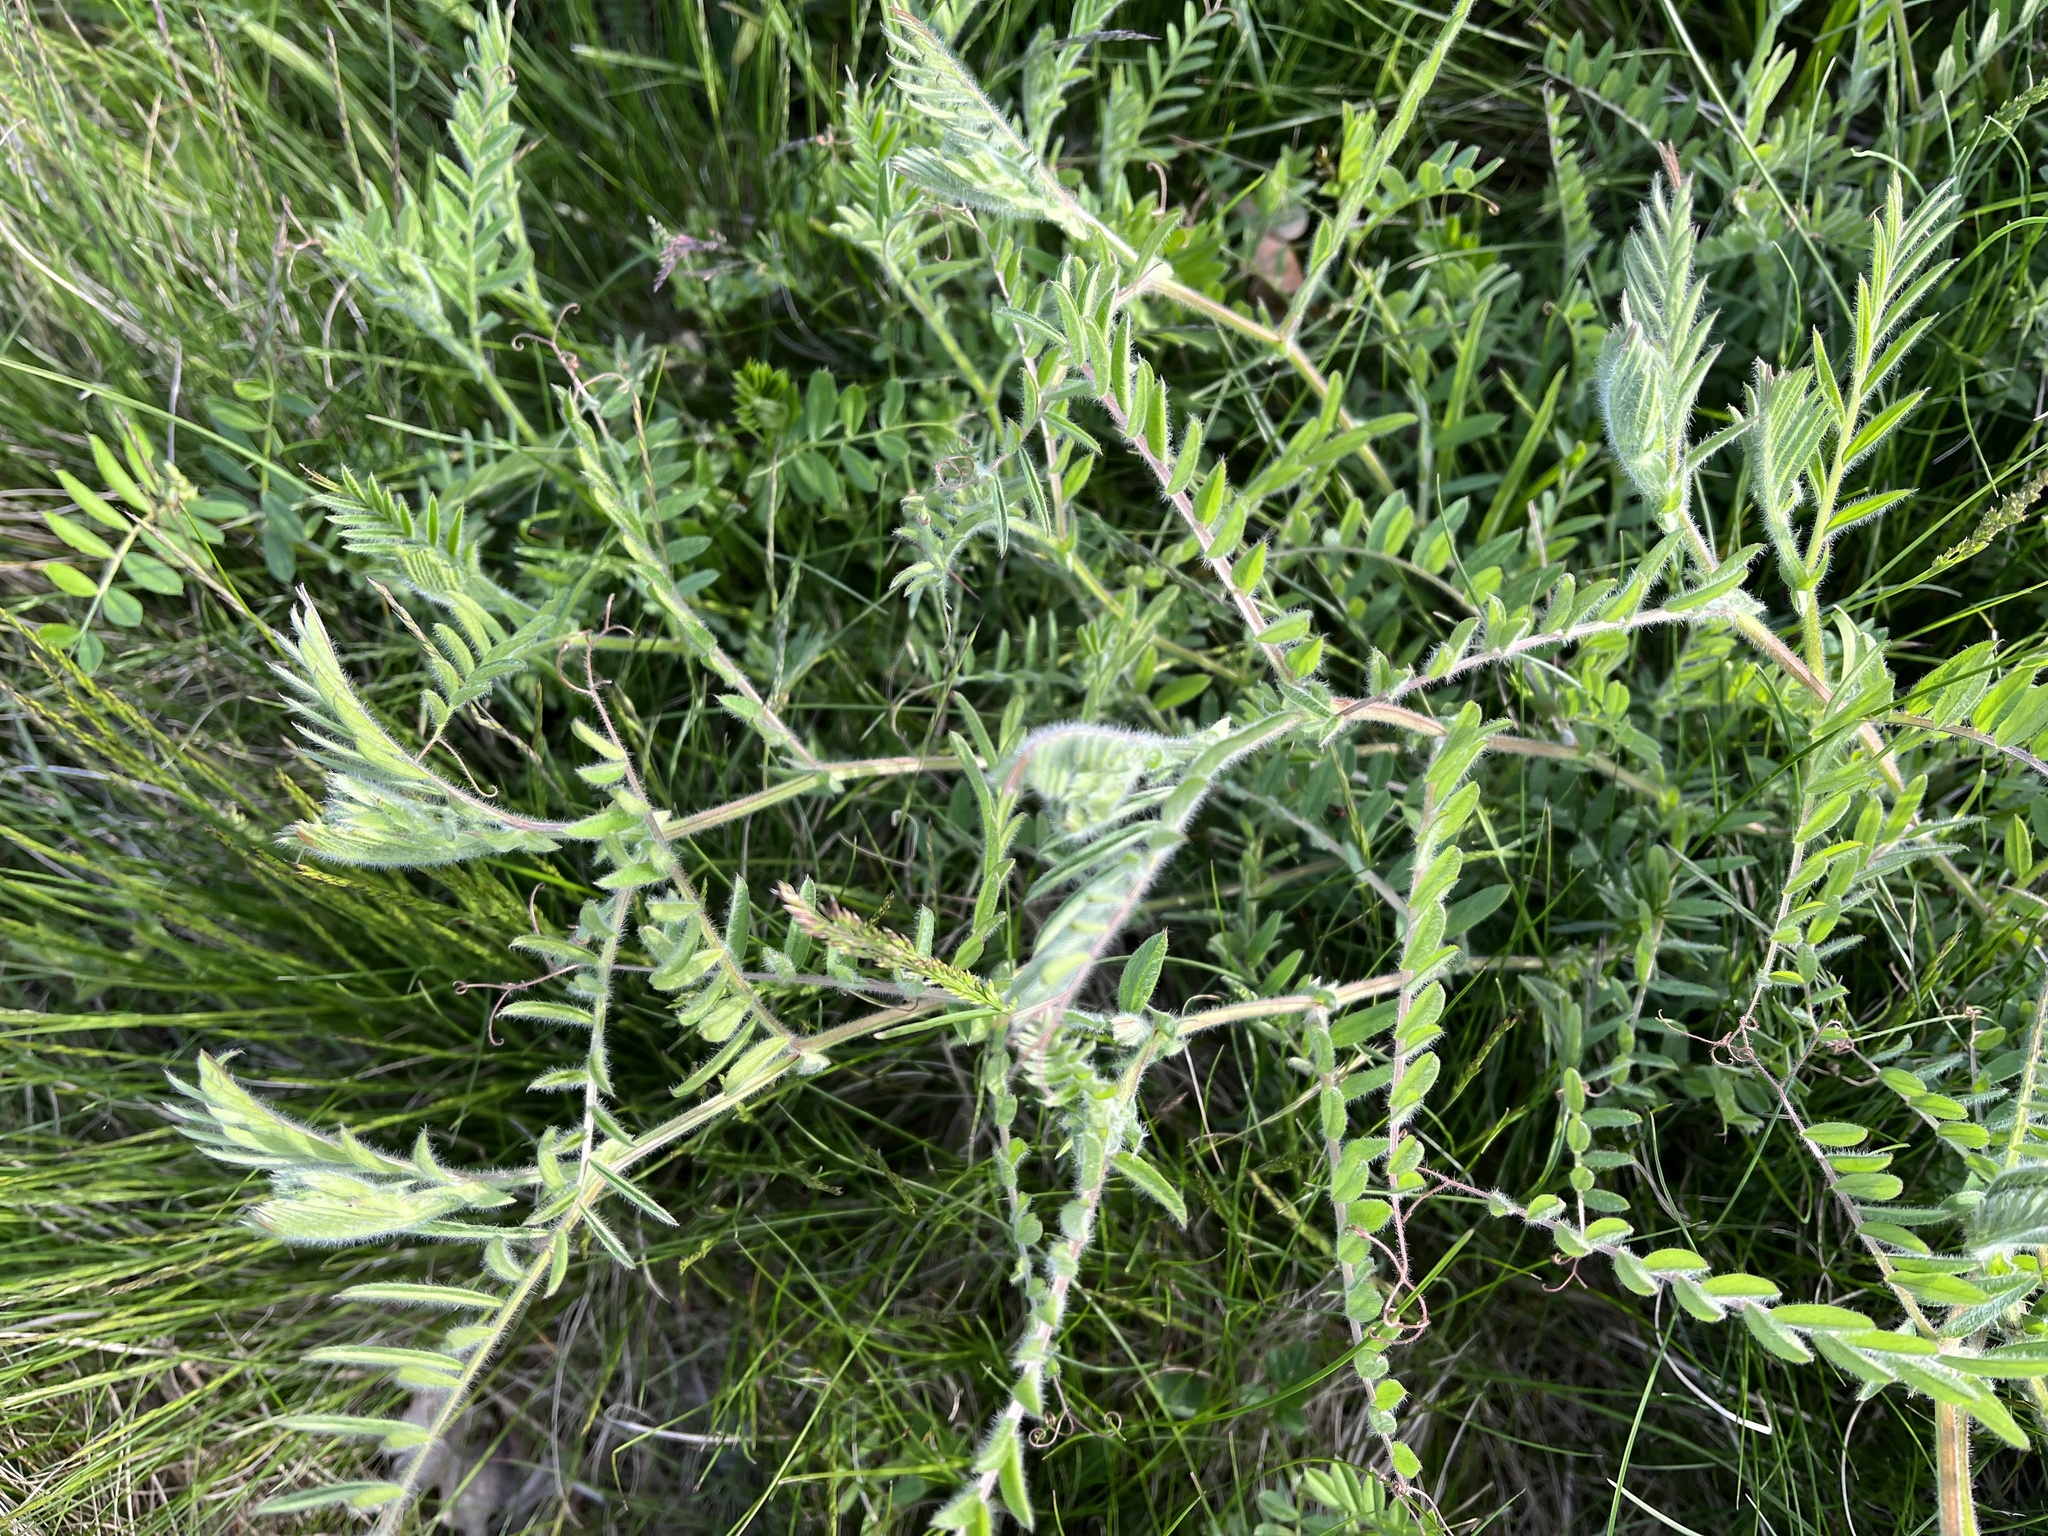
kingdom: Plantae
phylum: Tracheophyta
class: Magnoliopsida
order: Fabales
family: Fabaceae
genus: Vicia
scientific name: Vicia villosa
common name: Fodder vetch
